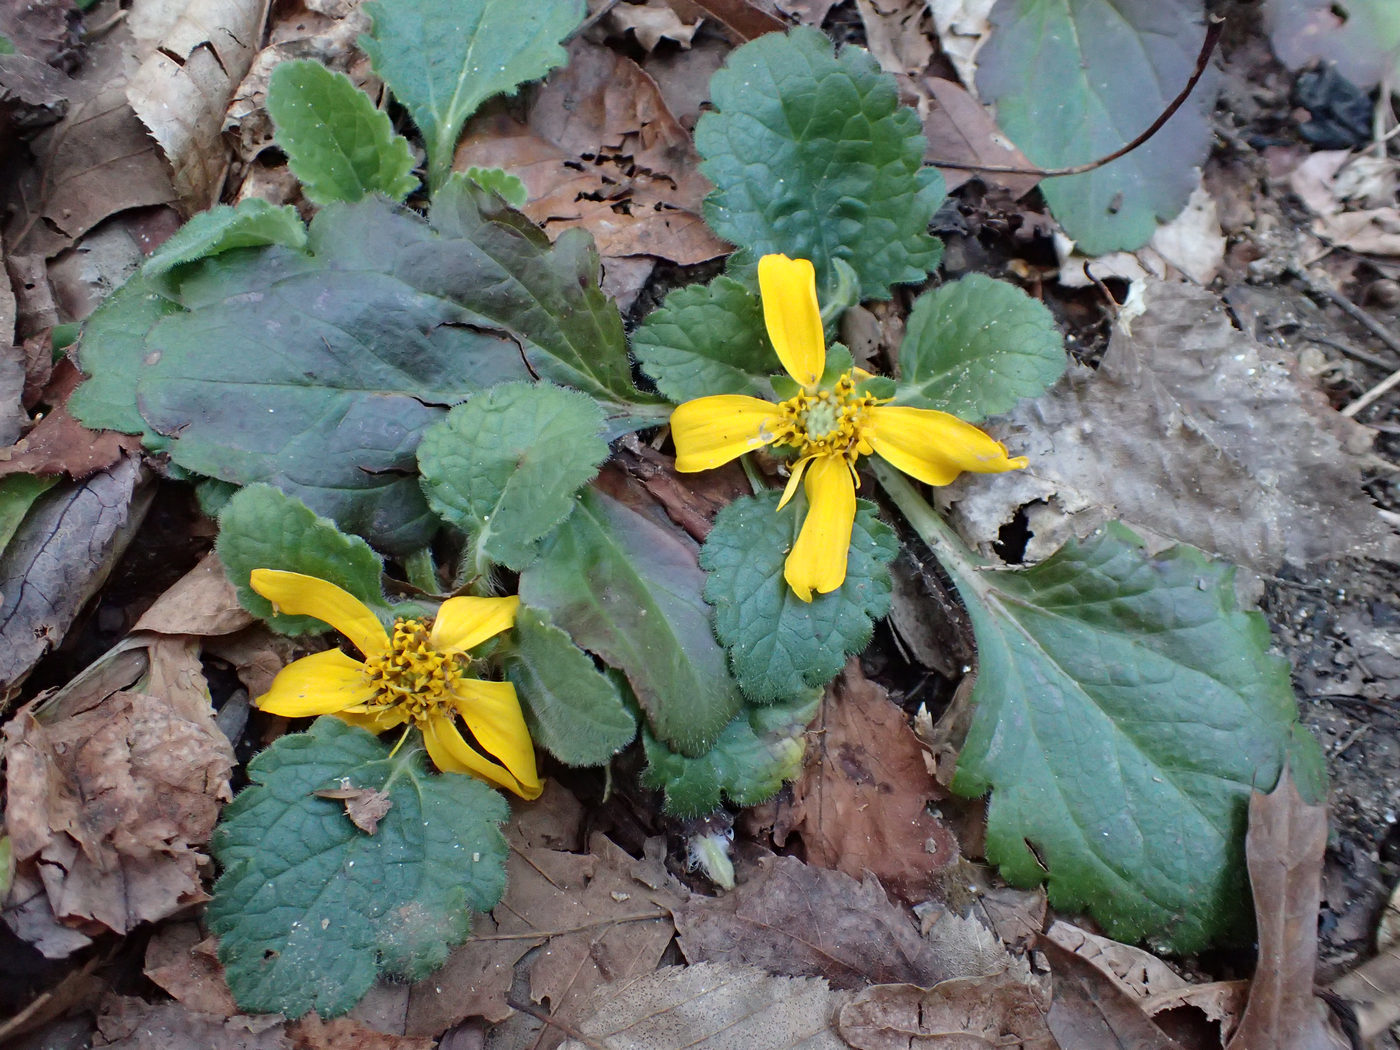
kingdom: Plantae
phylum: Tracheophyta
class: Magnoliopsida
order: Asterales
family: Asteraceae
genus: Chrysogonum
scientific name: Chrysogonum virginianum
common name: Golden-knee
